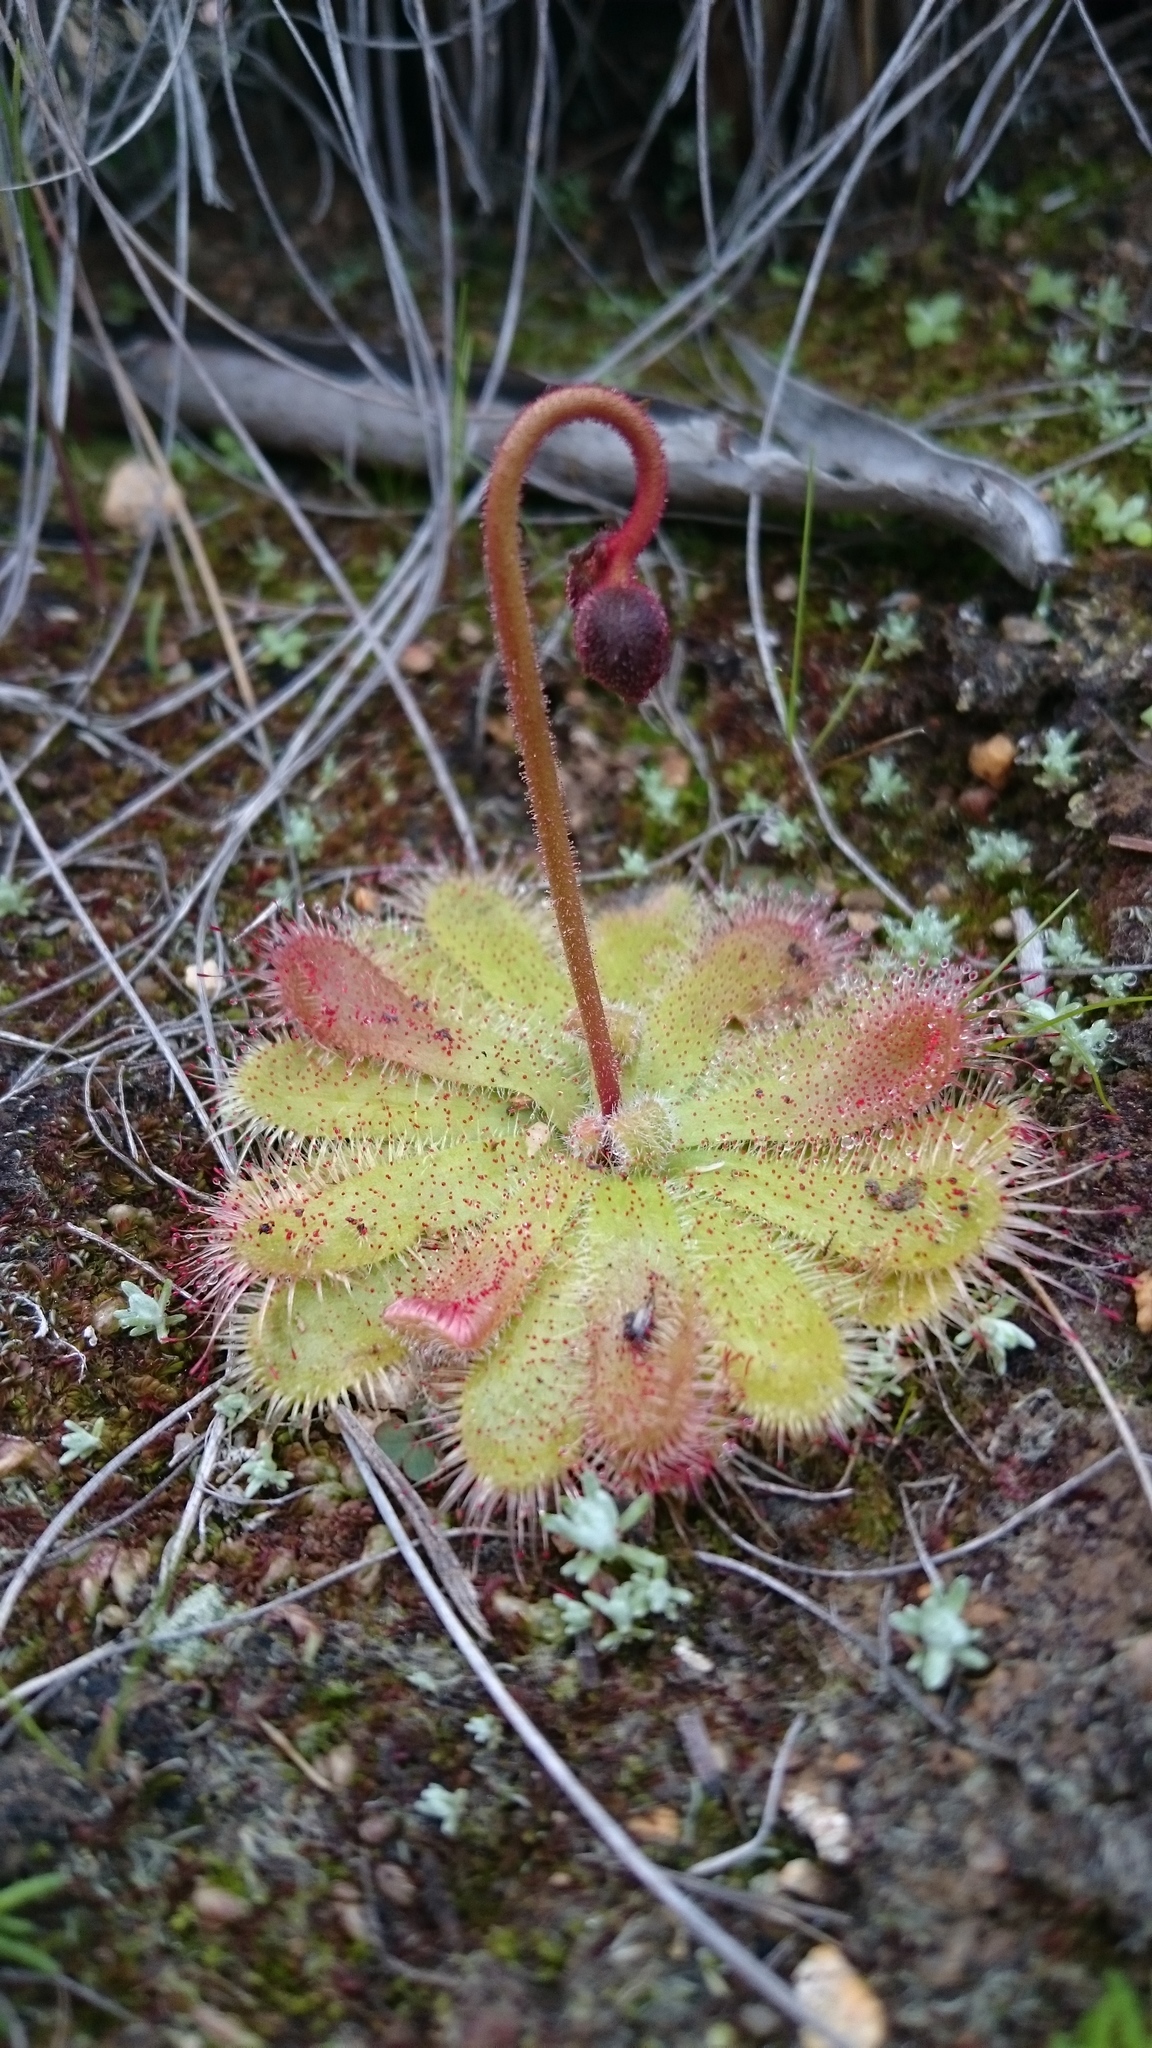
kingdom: Plantae
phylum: Tracheophyta
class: Magnoliopsida
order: Caryophyllales
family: Droseraceae
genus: Drosera
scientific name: Drosera pauciflora
